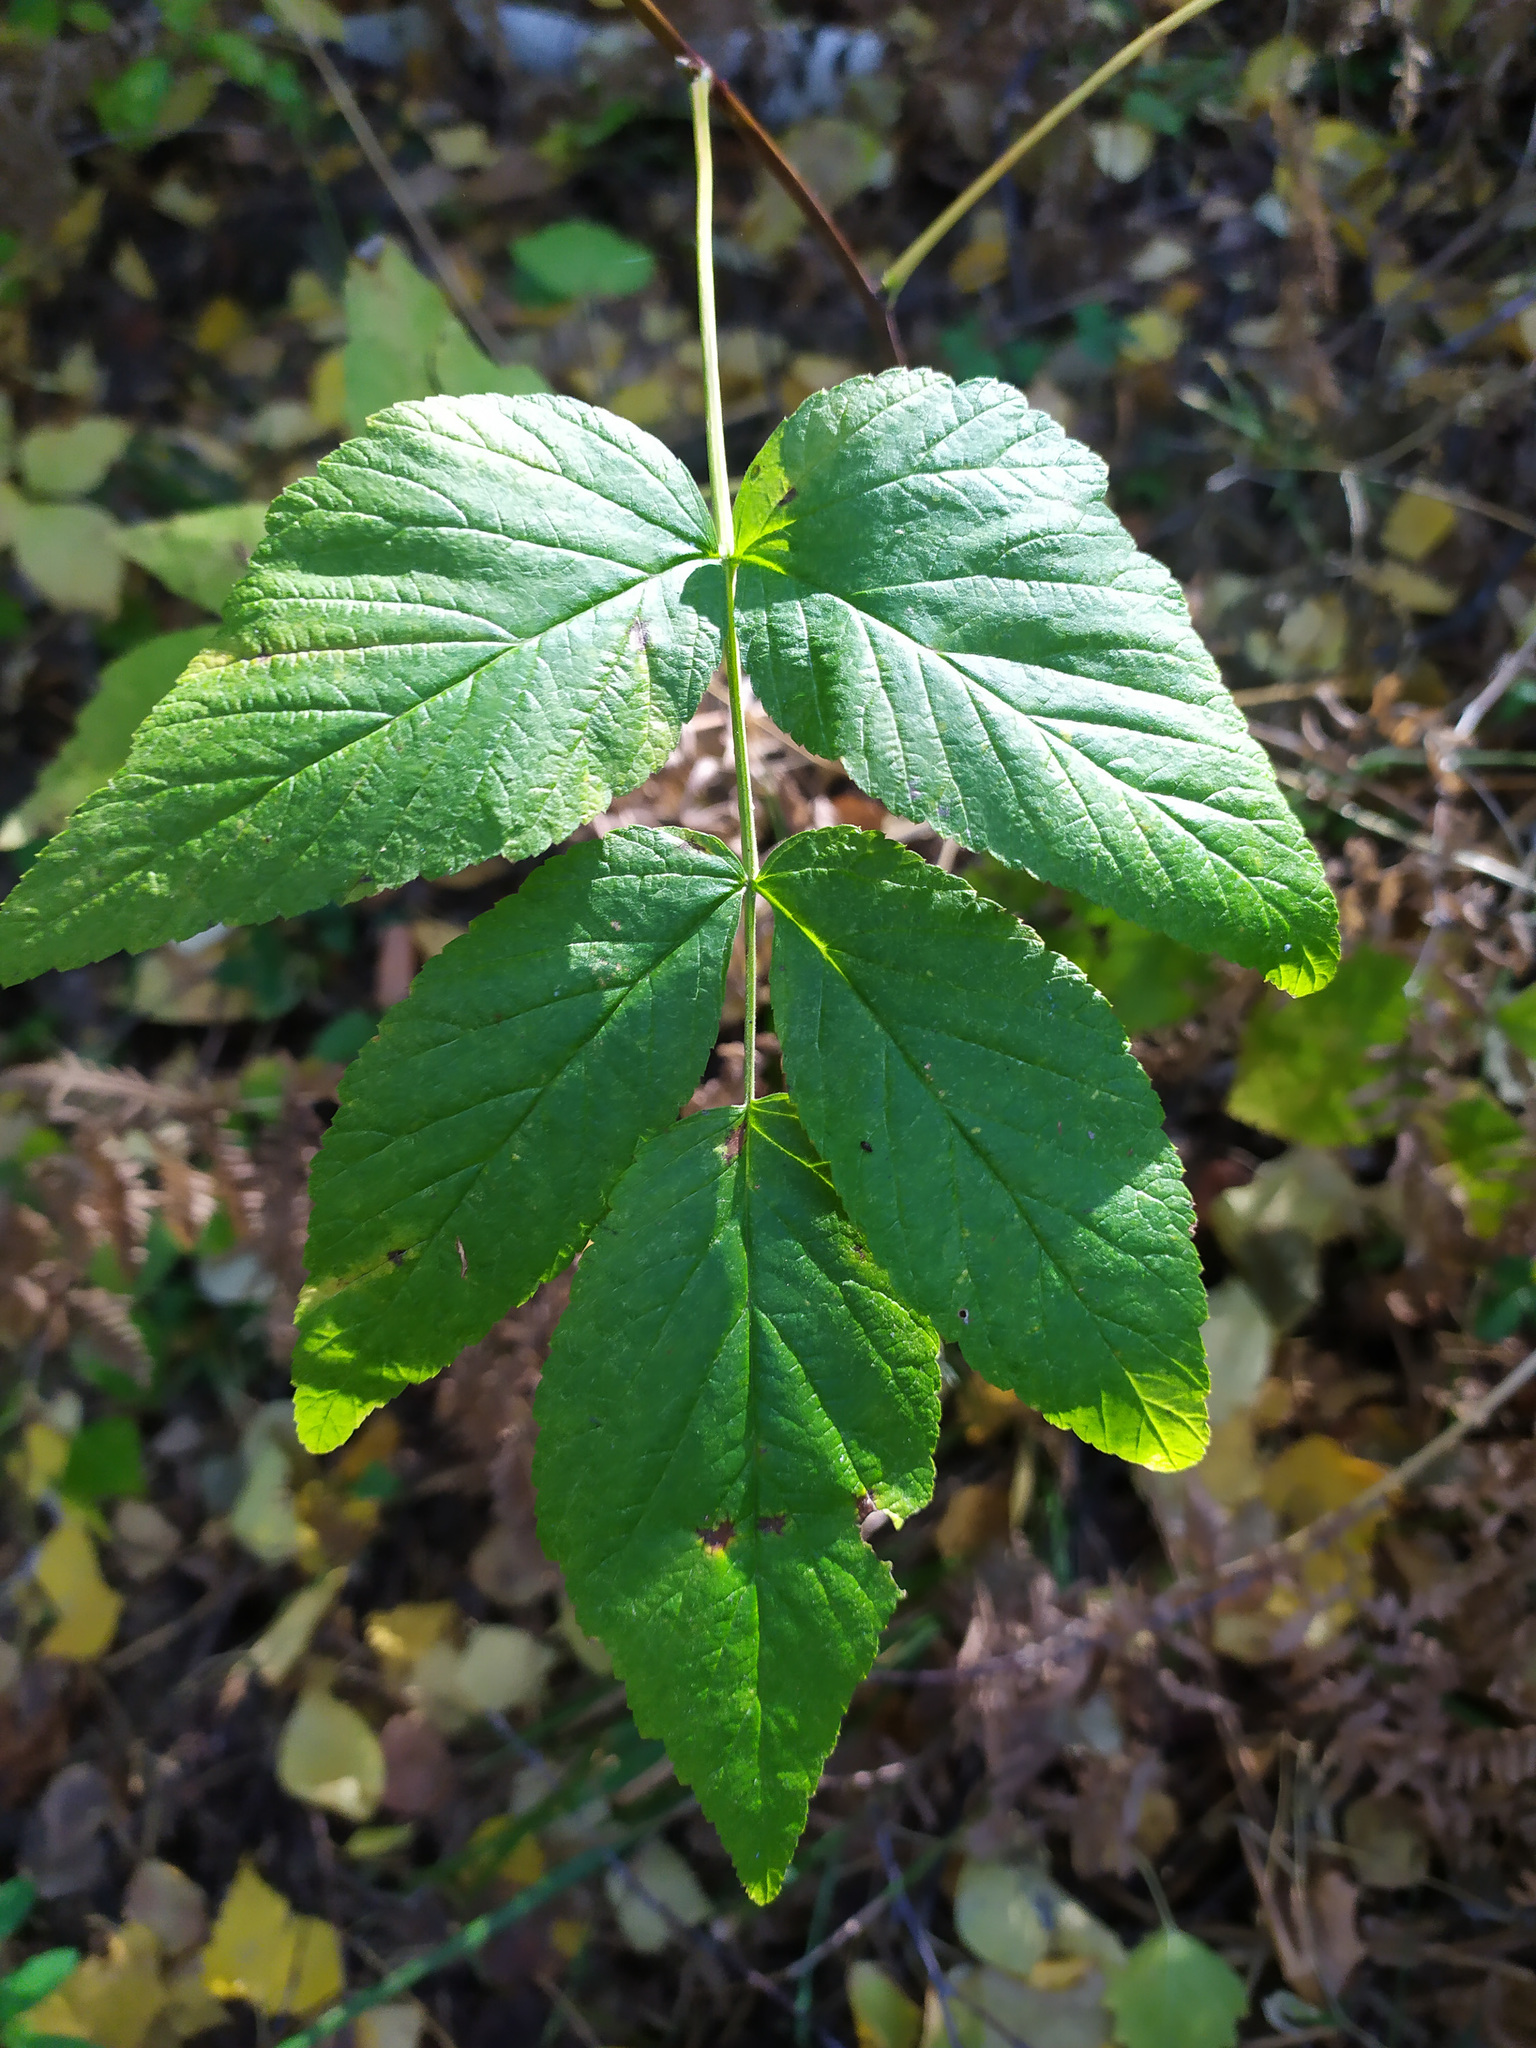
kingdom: Plantae
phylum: Tracheophyta
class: Magnoliopsida
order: Rosales
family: Rosaceae
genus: Rubus
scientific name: Rubus idaeus
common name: Raspberry
